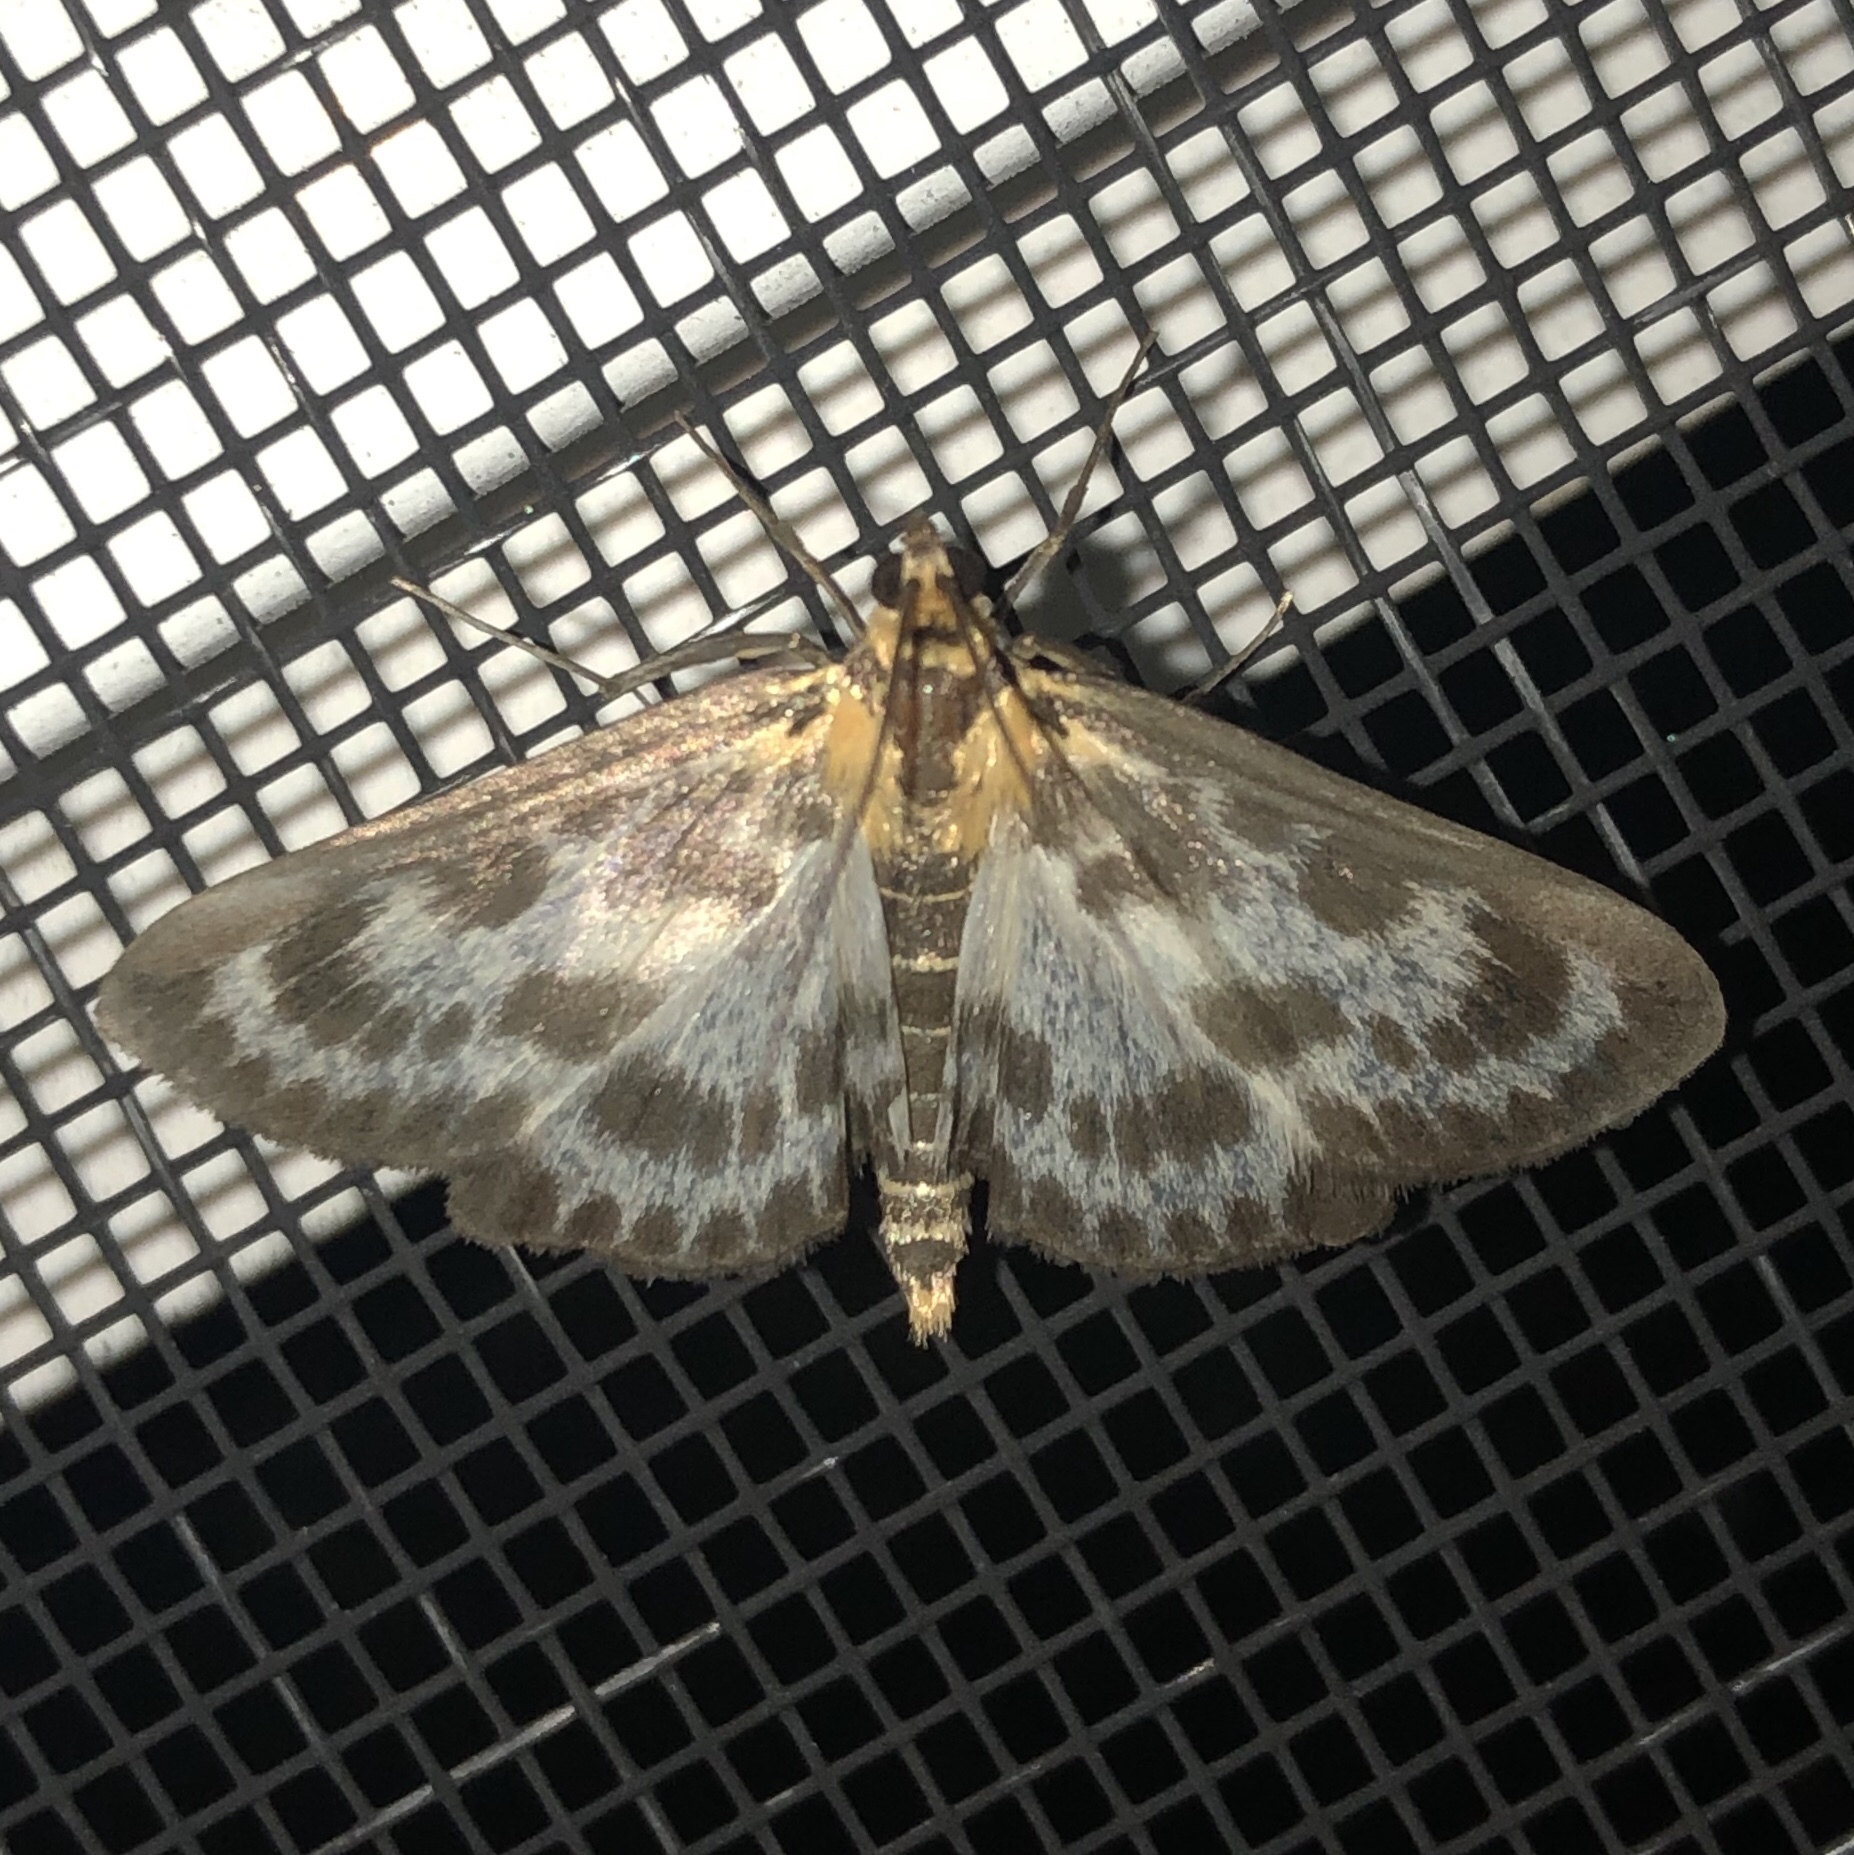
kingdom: Animalia
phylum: Arthropoda
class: Insecta
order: Lepidoptera
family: Crambidae
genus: Anania
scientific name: Anania hortulata
